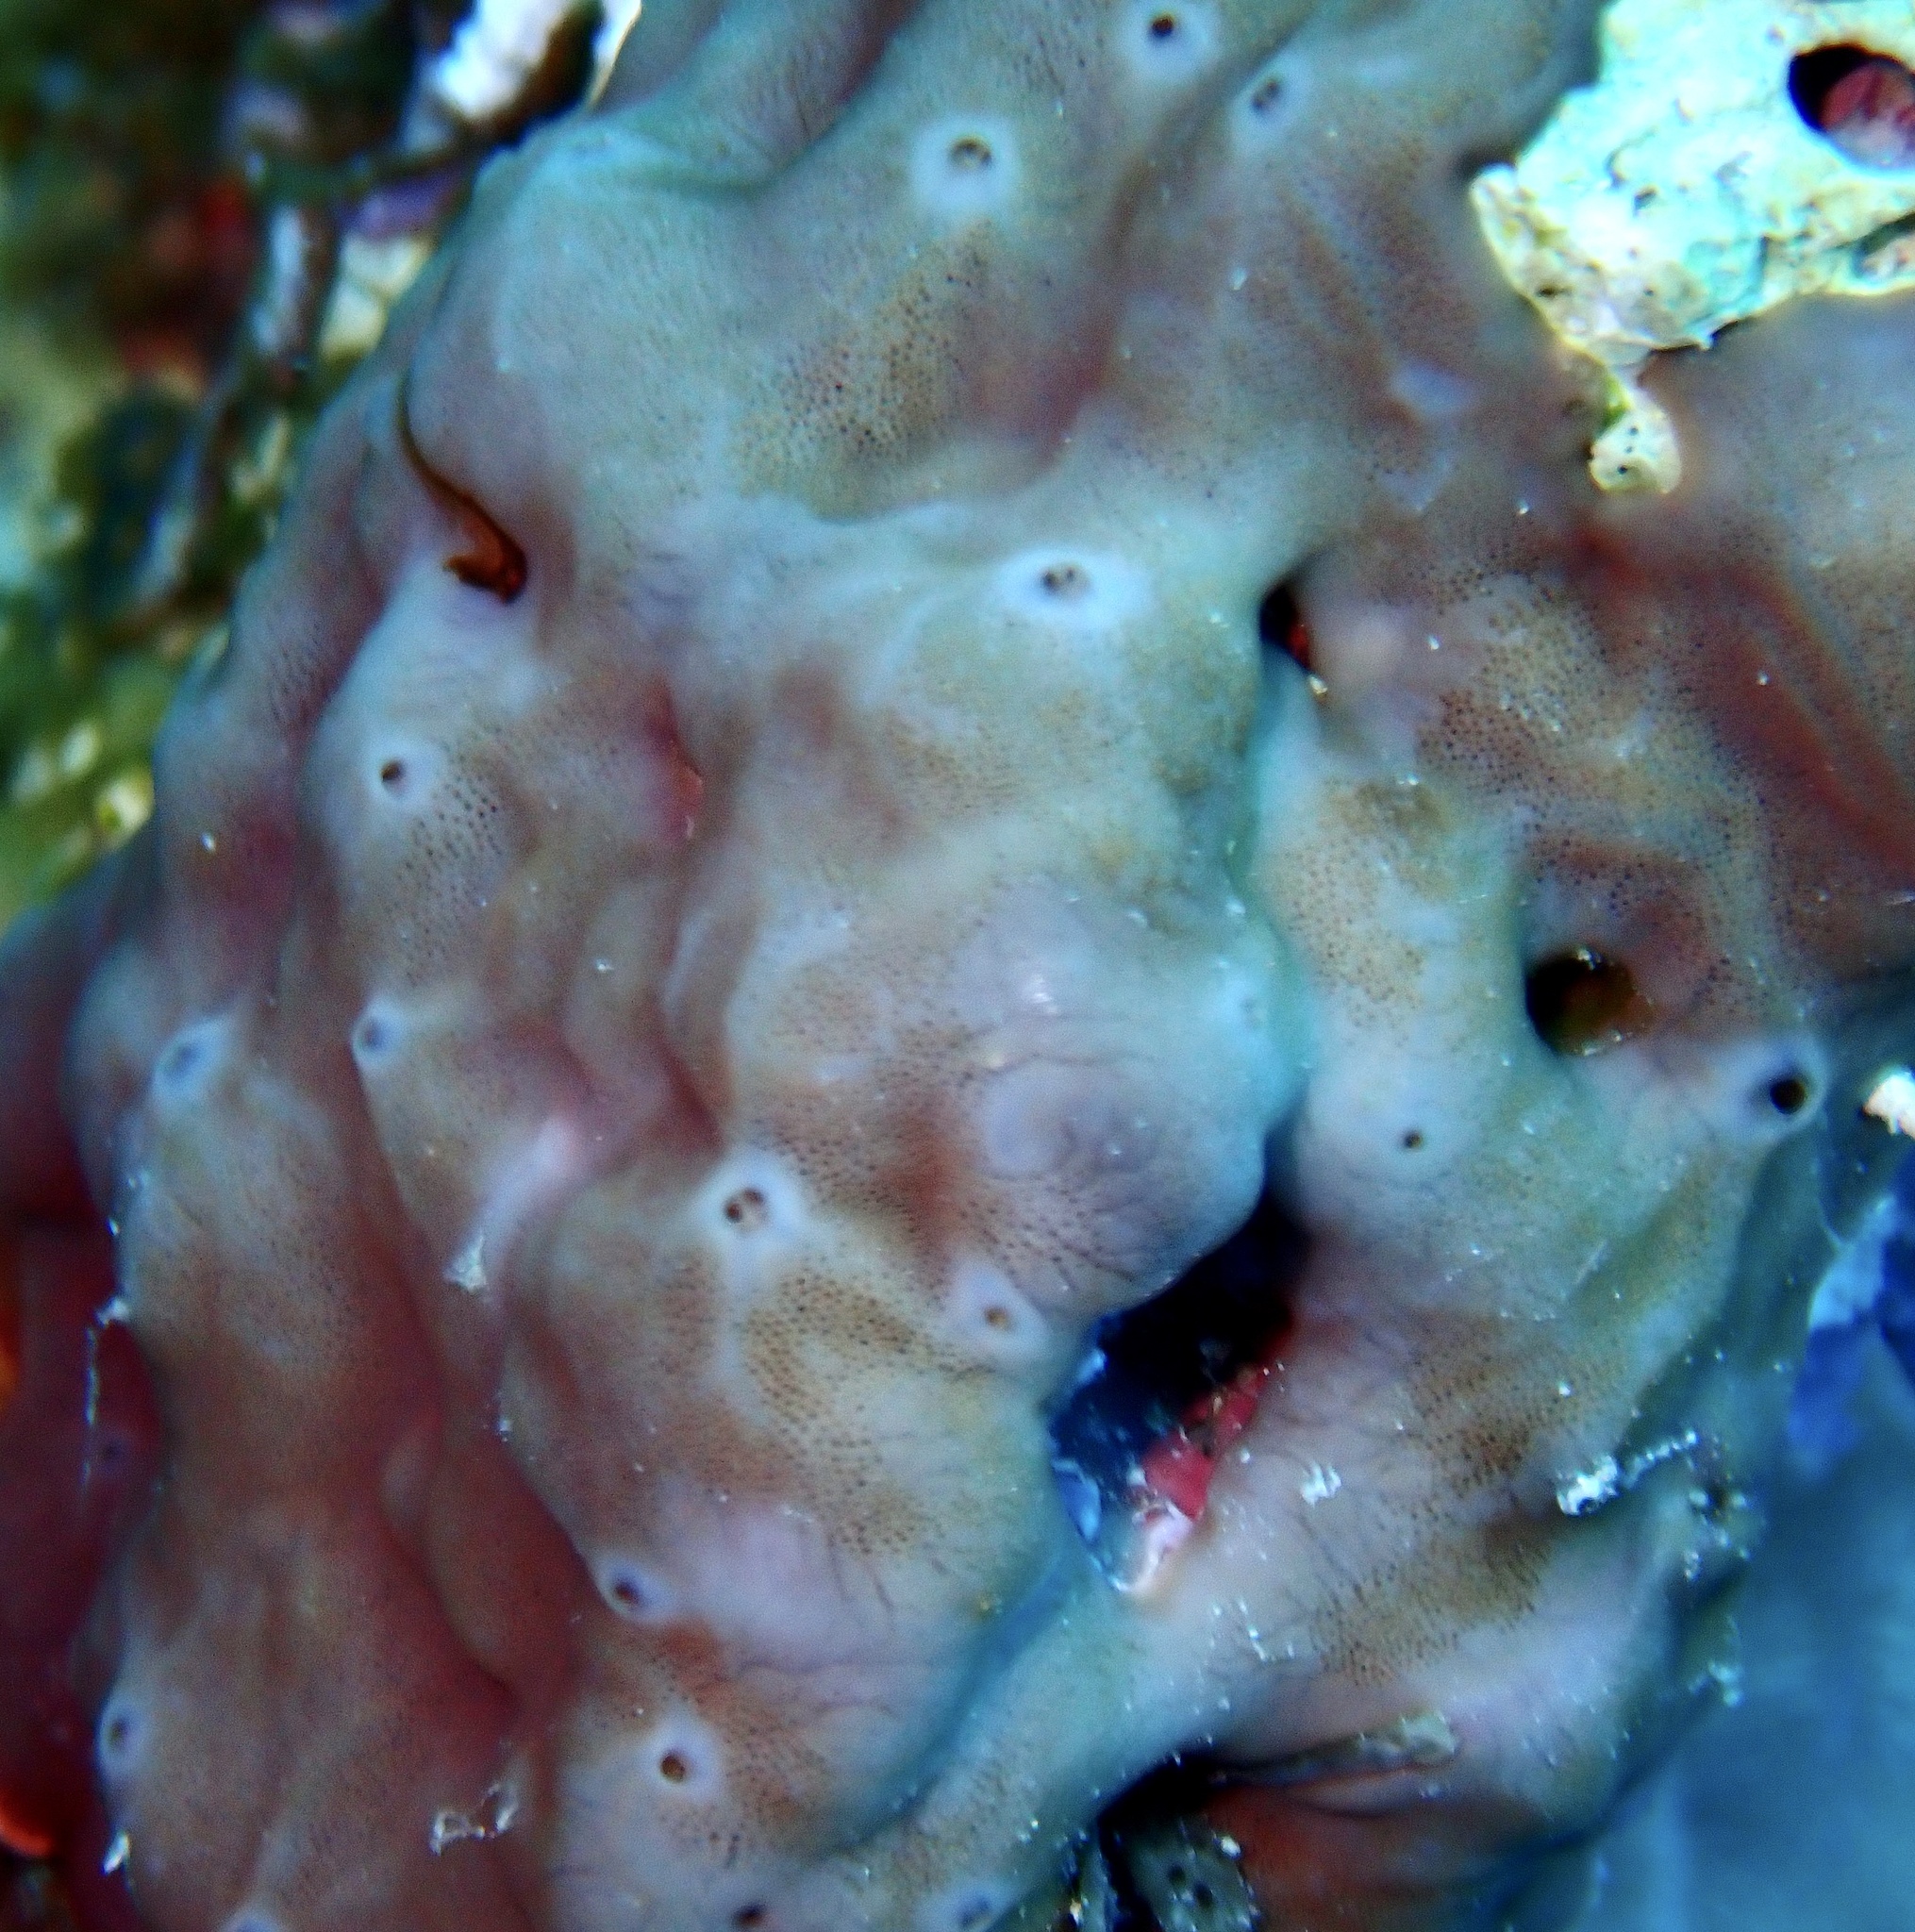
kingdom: Animalia
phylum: Porifera
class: Demospongiae
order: Chondrillida
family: Chondrillidae
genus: Chondrilla
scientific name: Chondrilla australiensis
